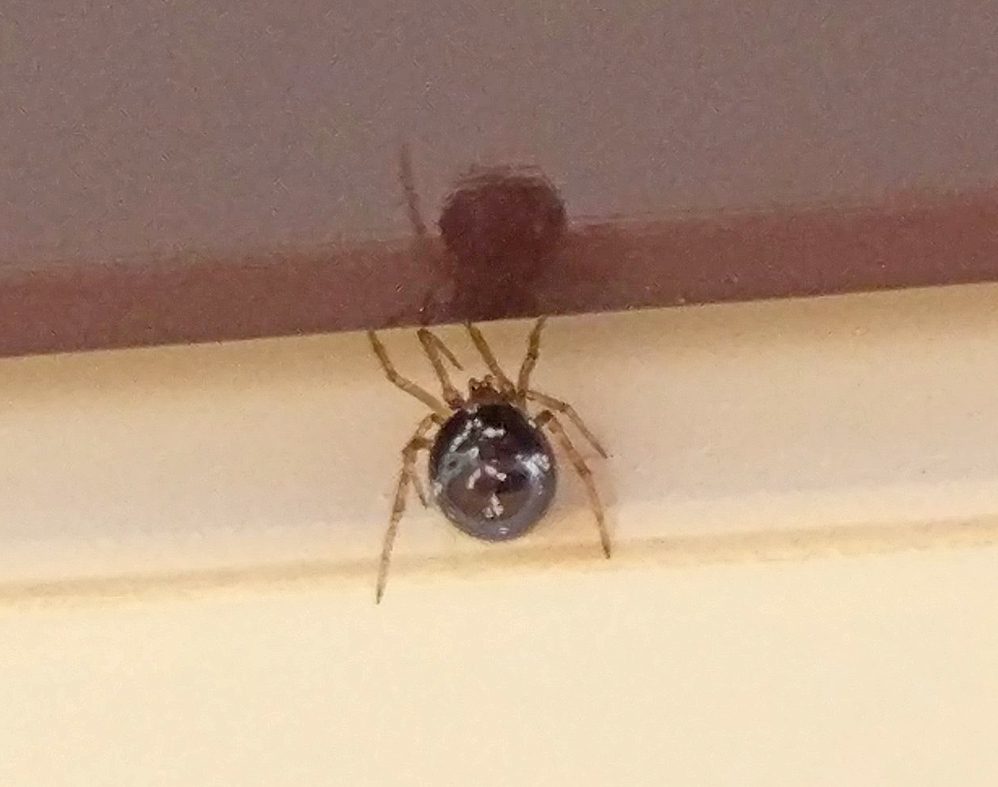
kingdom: Animalia
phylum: Arthropoda
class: Arachnida
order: Araneae
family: Theridiidae
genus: Steatoda
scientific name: Steatoda triangulosa
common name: Triangulate bud spider
